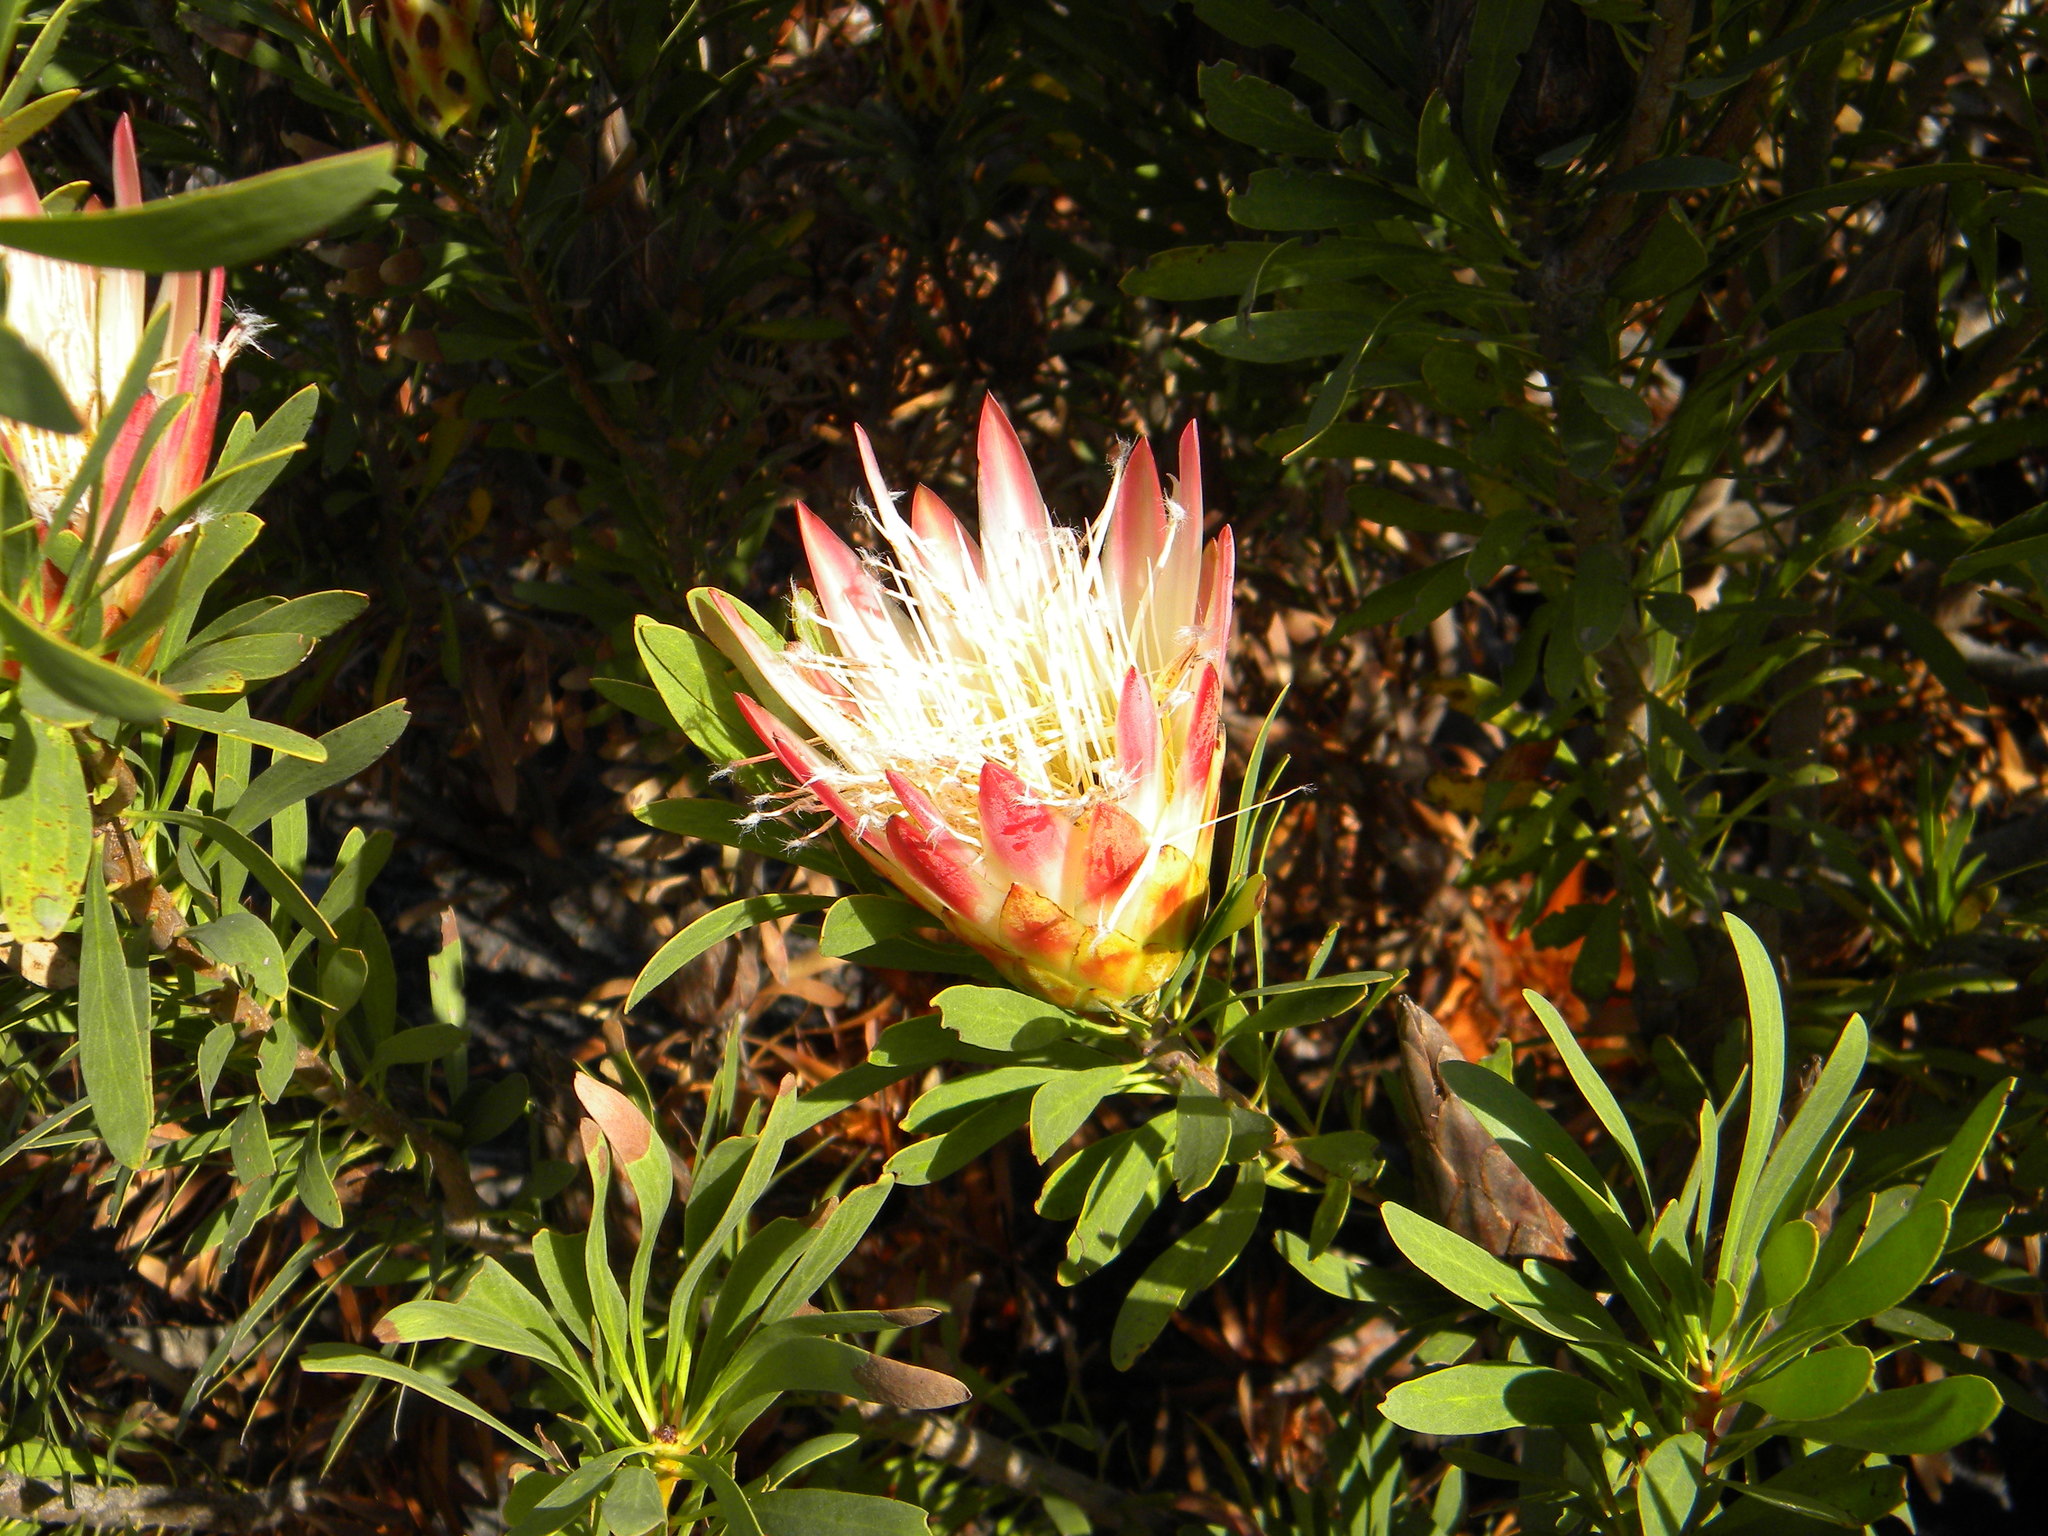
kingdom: Plantae
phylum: Tracheophyta
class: Magnoliopsida
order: Proteales
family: Proteaceae
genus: Protea
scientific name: Protea repens
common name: Sugarbush
